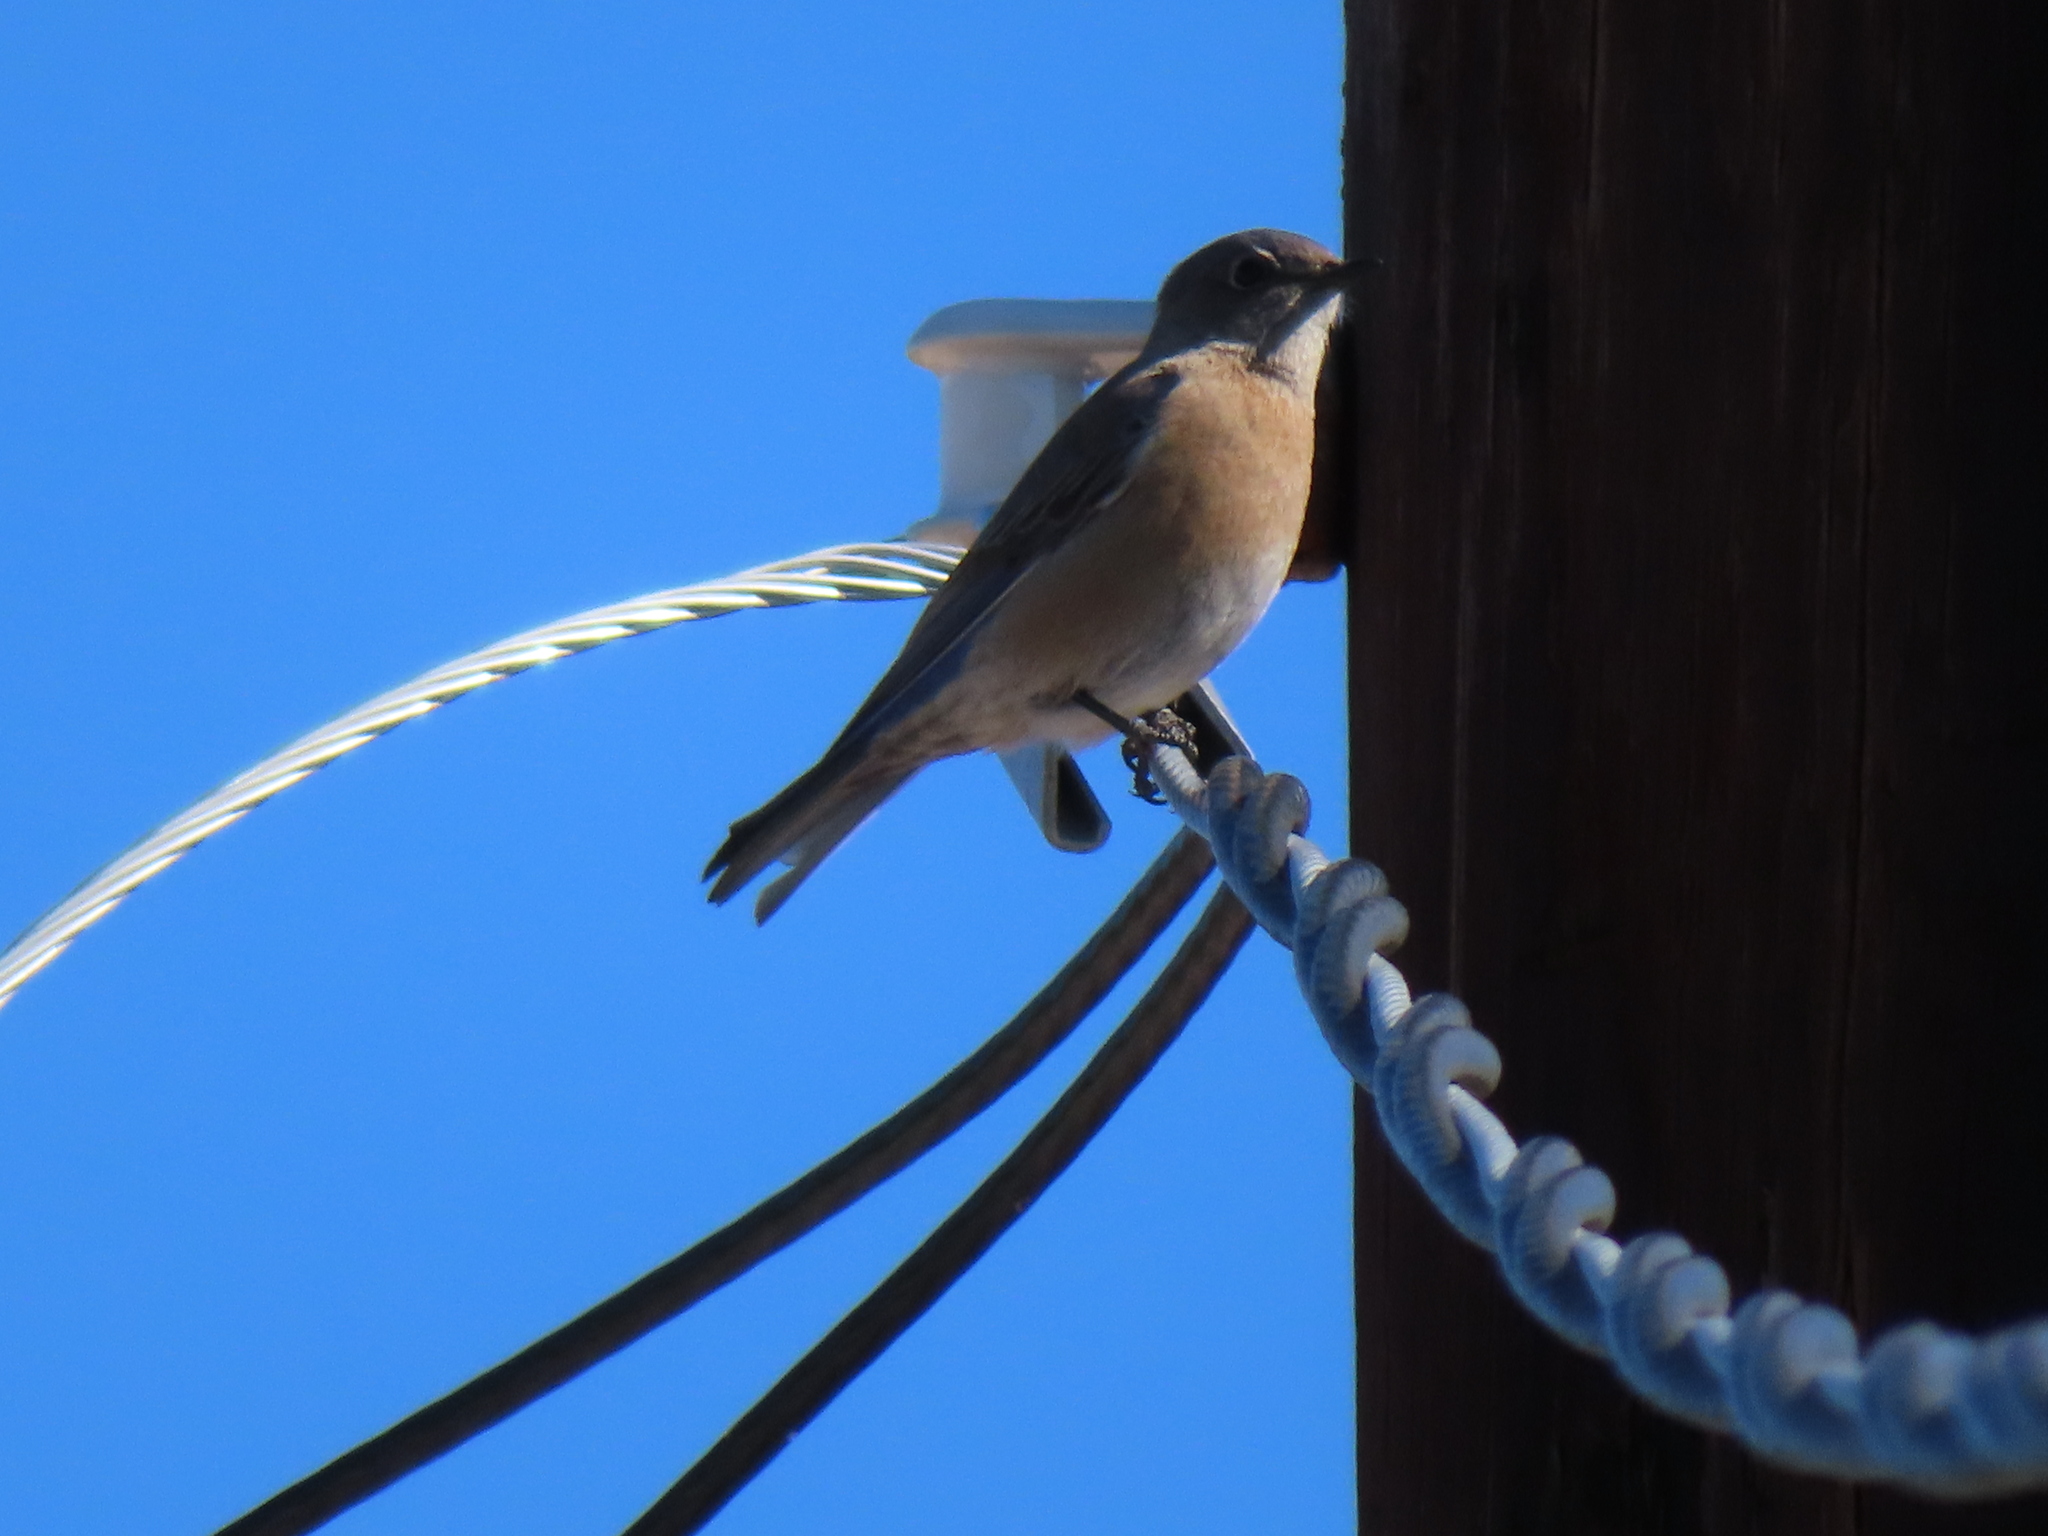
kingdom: Animalia
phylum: Chordata
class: Aves
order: Passeriformes
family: Turdidae
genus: Sialia
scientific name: Sialia sialis
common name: Eastern bluebird
